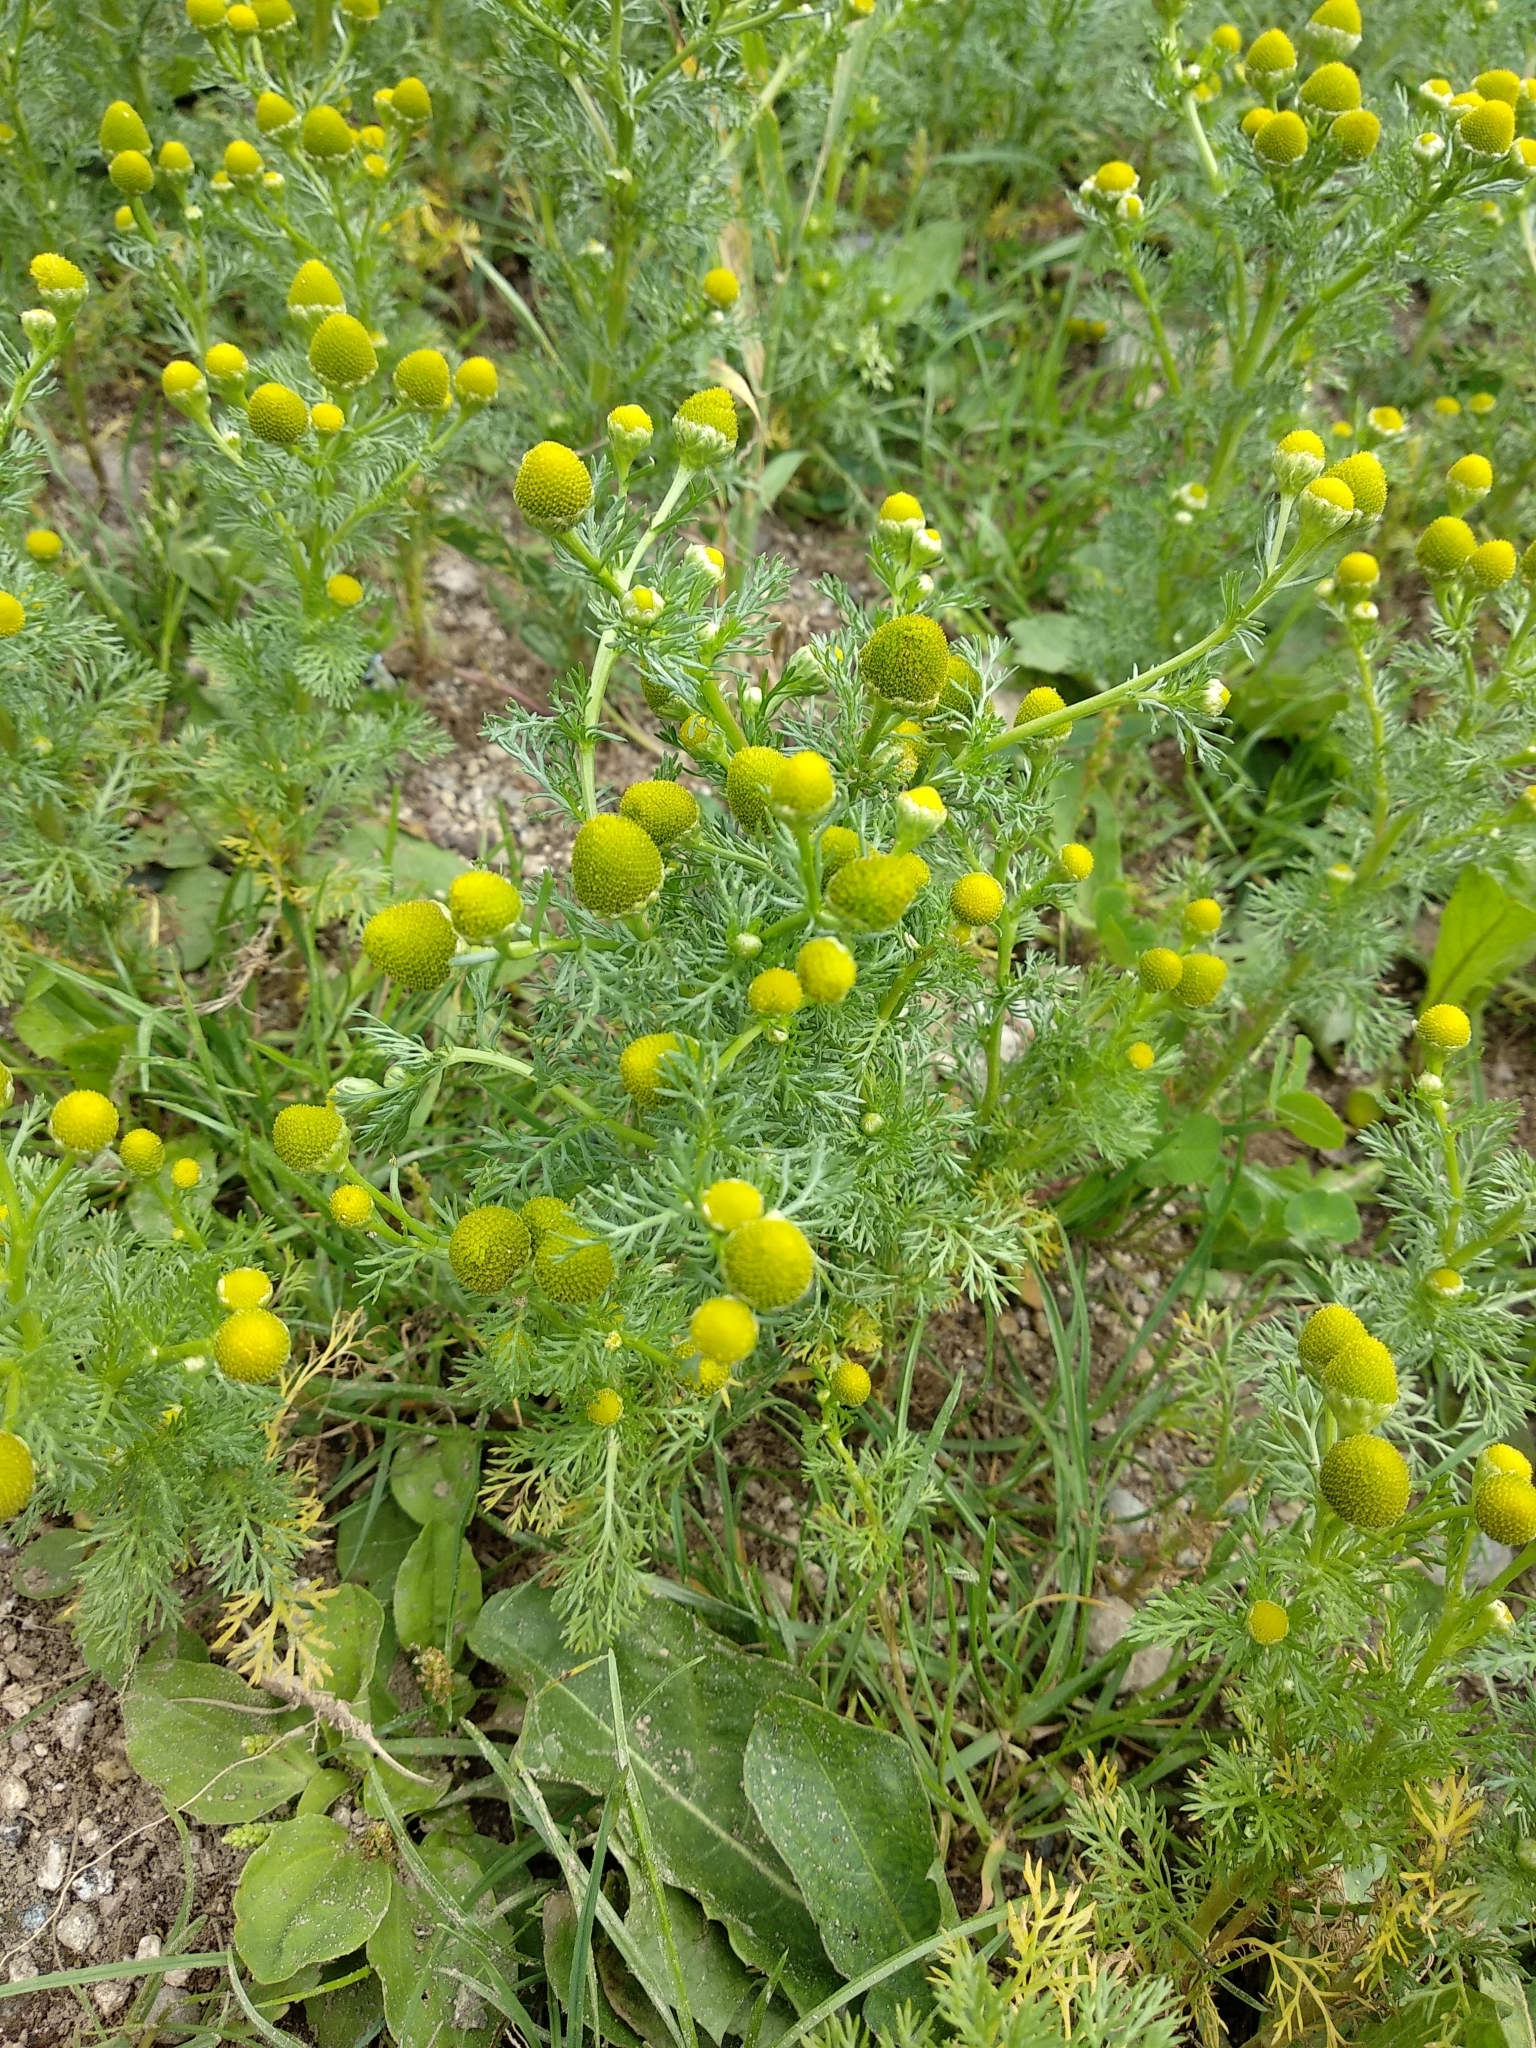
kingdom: Plantae
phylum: Tracheophyta
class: Magnoliopsida
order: Asterales
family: Asteraceae
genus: Matricaria
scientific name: Matricaria discoidea
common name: Disc mayweed
